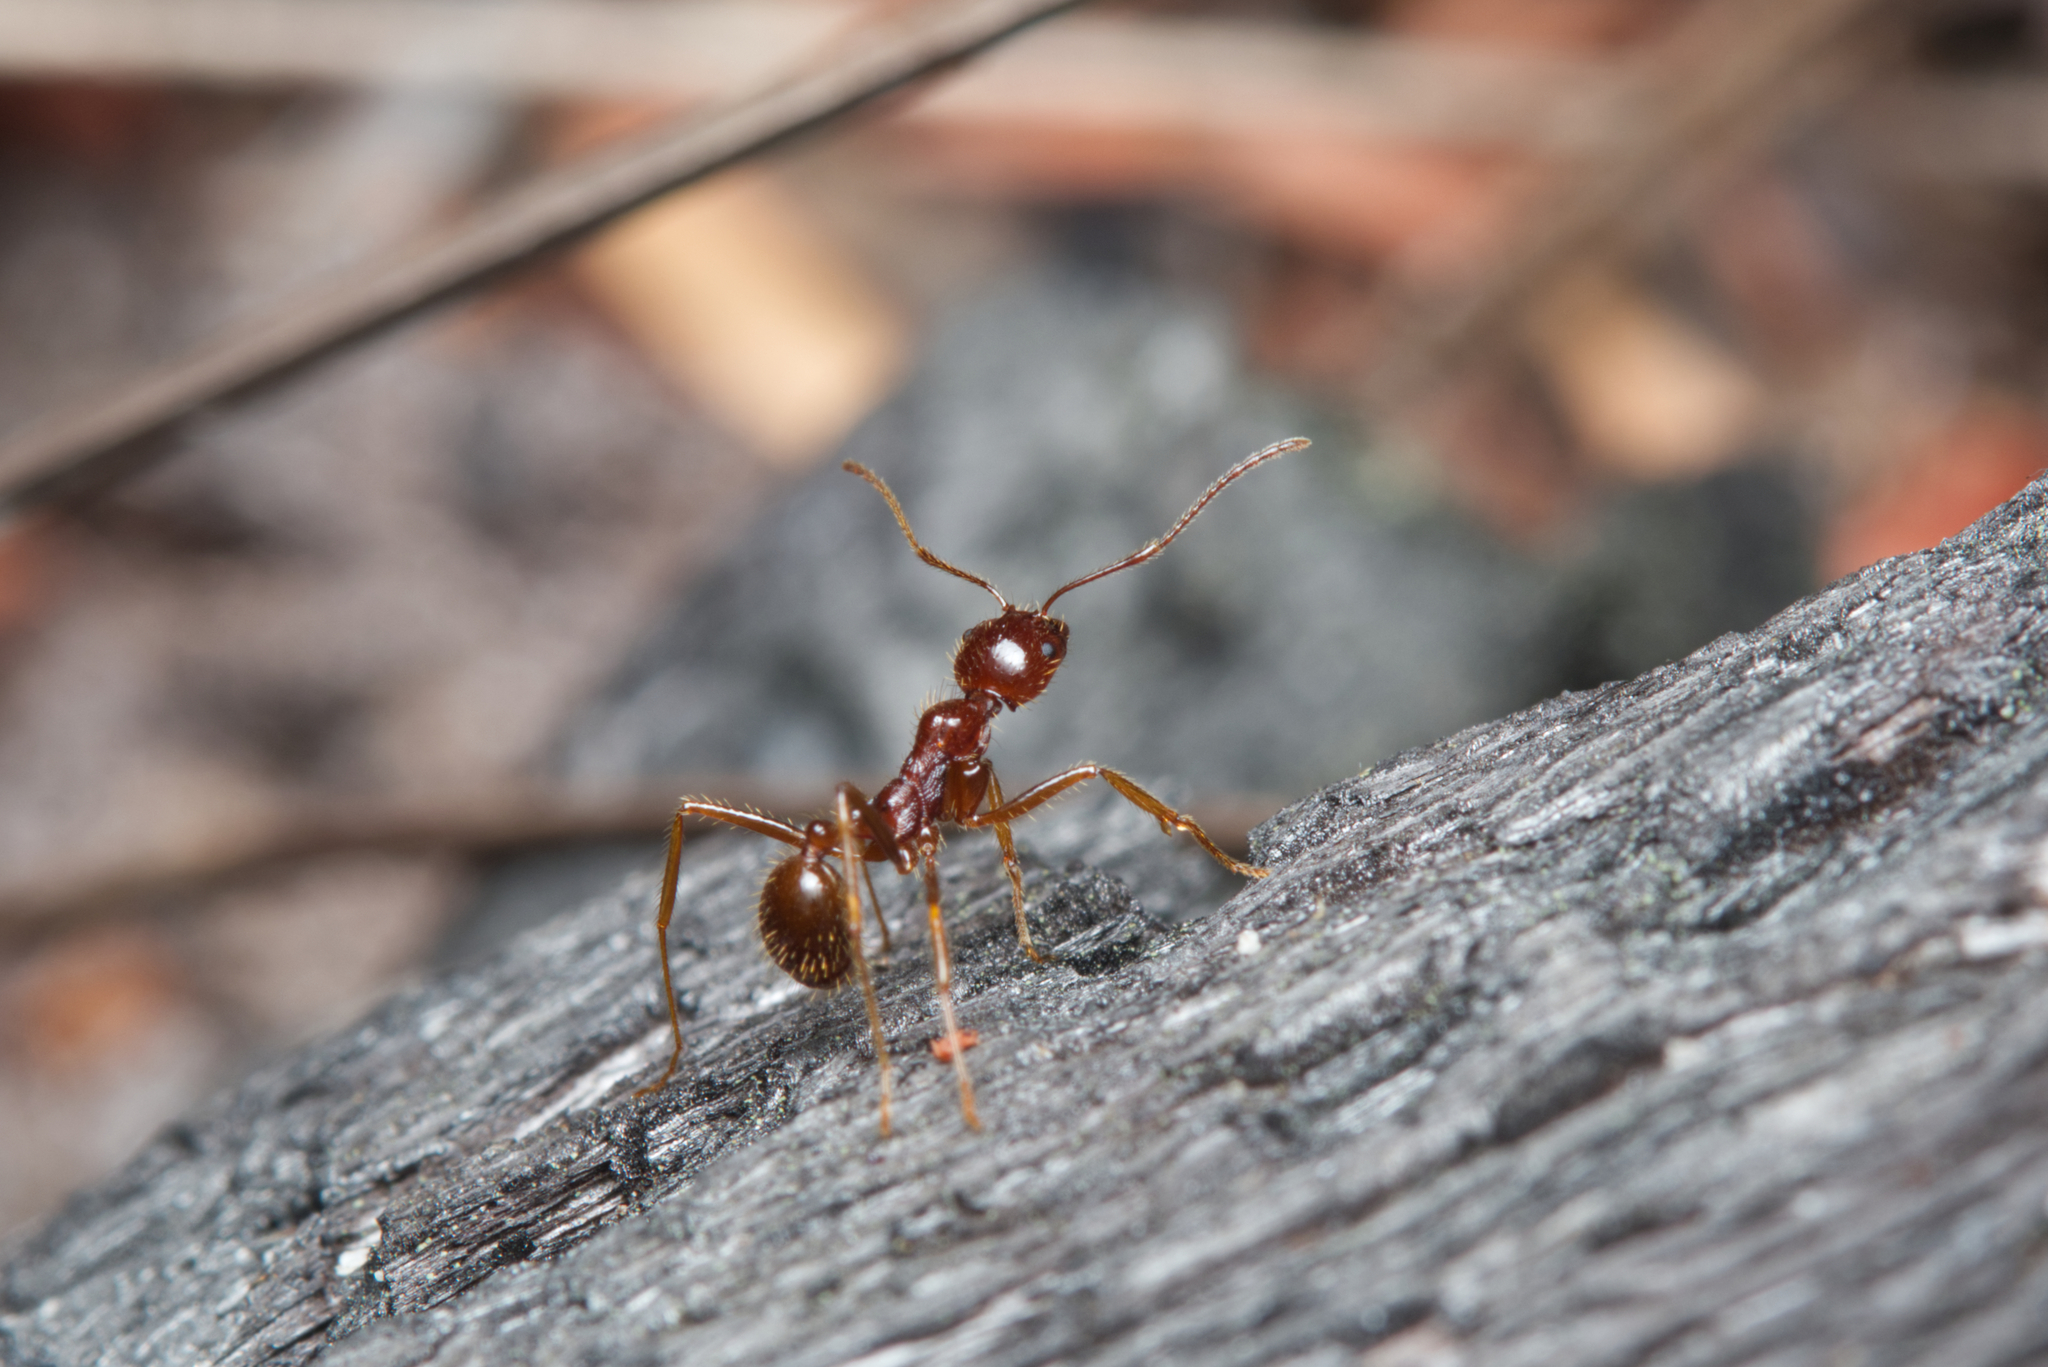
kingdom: Animalia
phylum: Arthropoda
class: Insecta
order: Hymenoptera
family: Formicidae
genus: Aphaenogaster
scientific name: Aphaenogaster longiceps
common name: Funnel ant
